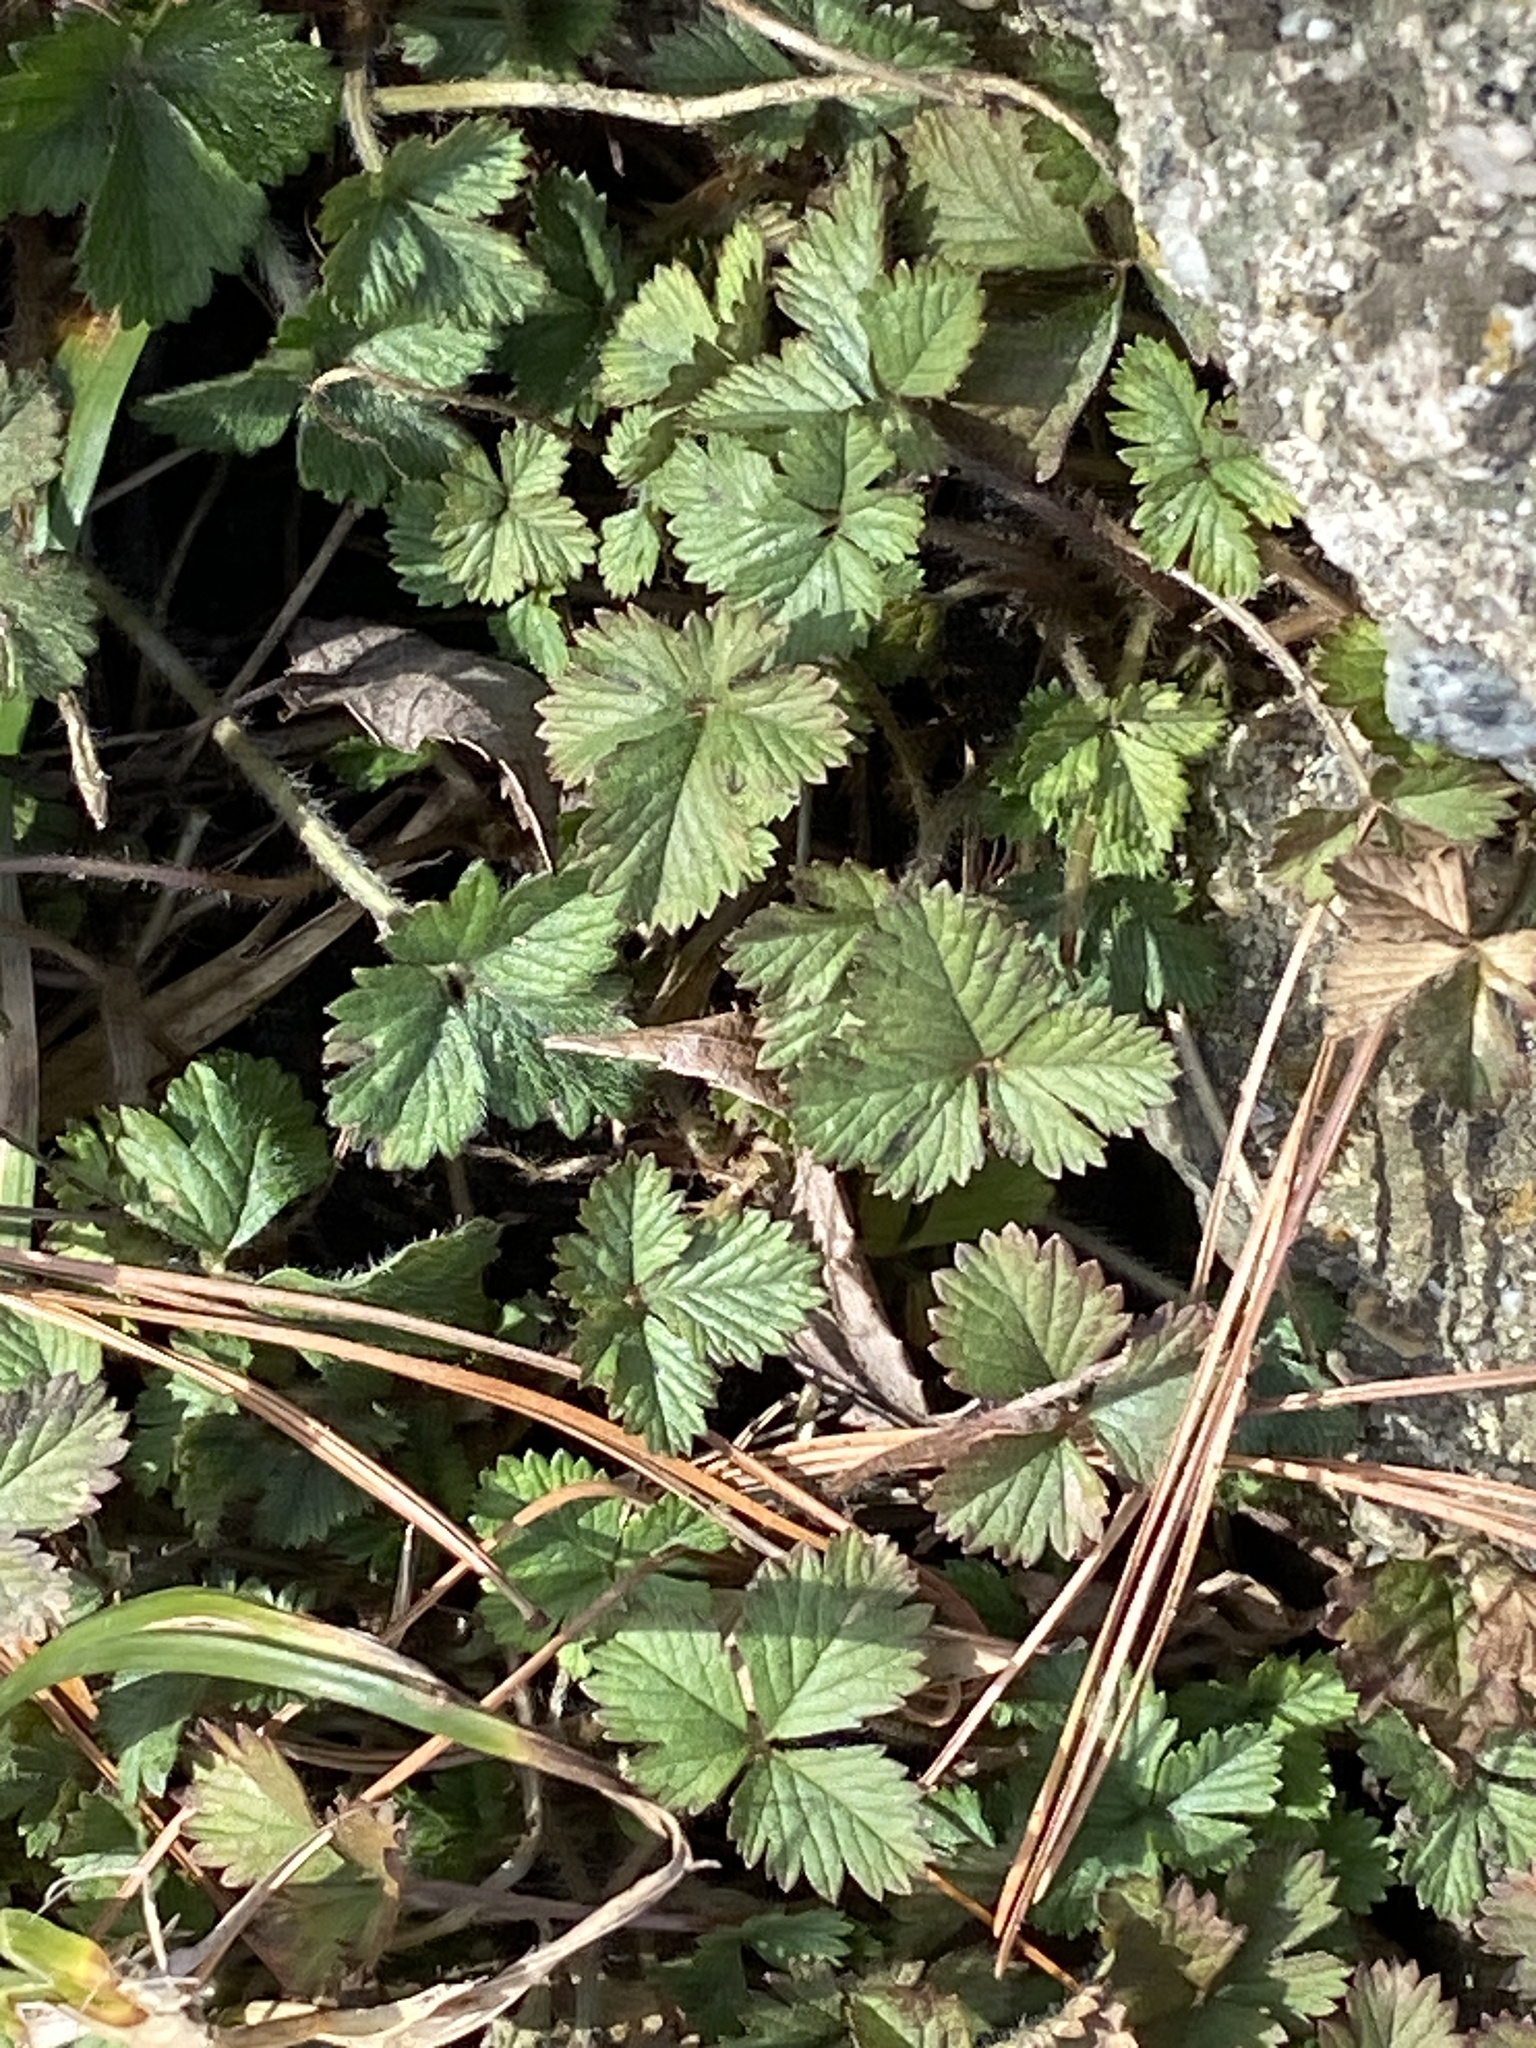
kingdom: Plantae
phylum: Tracheophyta
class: Magnoliopsida
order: Rosales
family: Rosaceae
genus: Potentilla
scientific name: Potentilla indica
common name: Yellow-flowered strawberry
